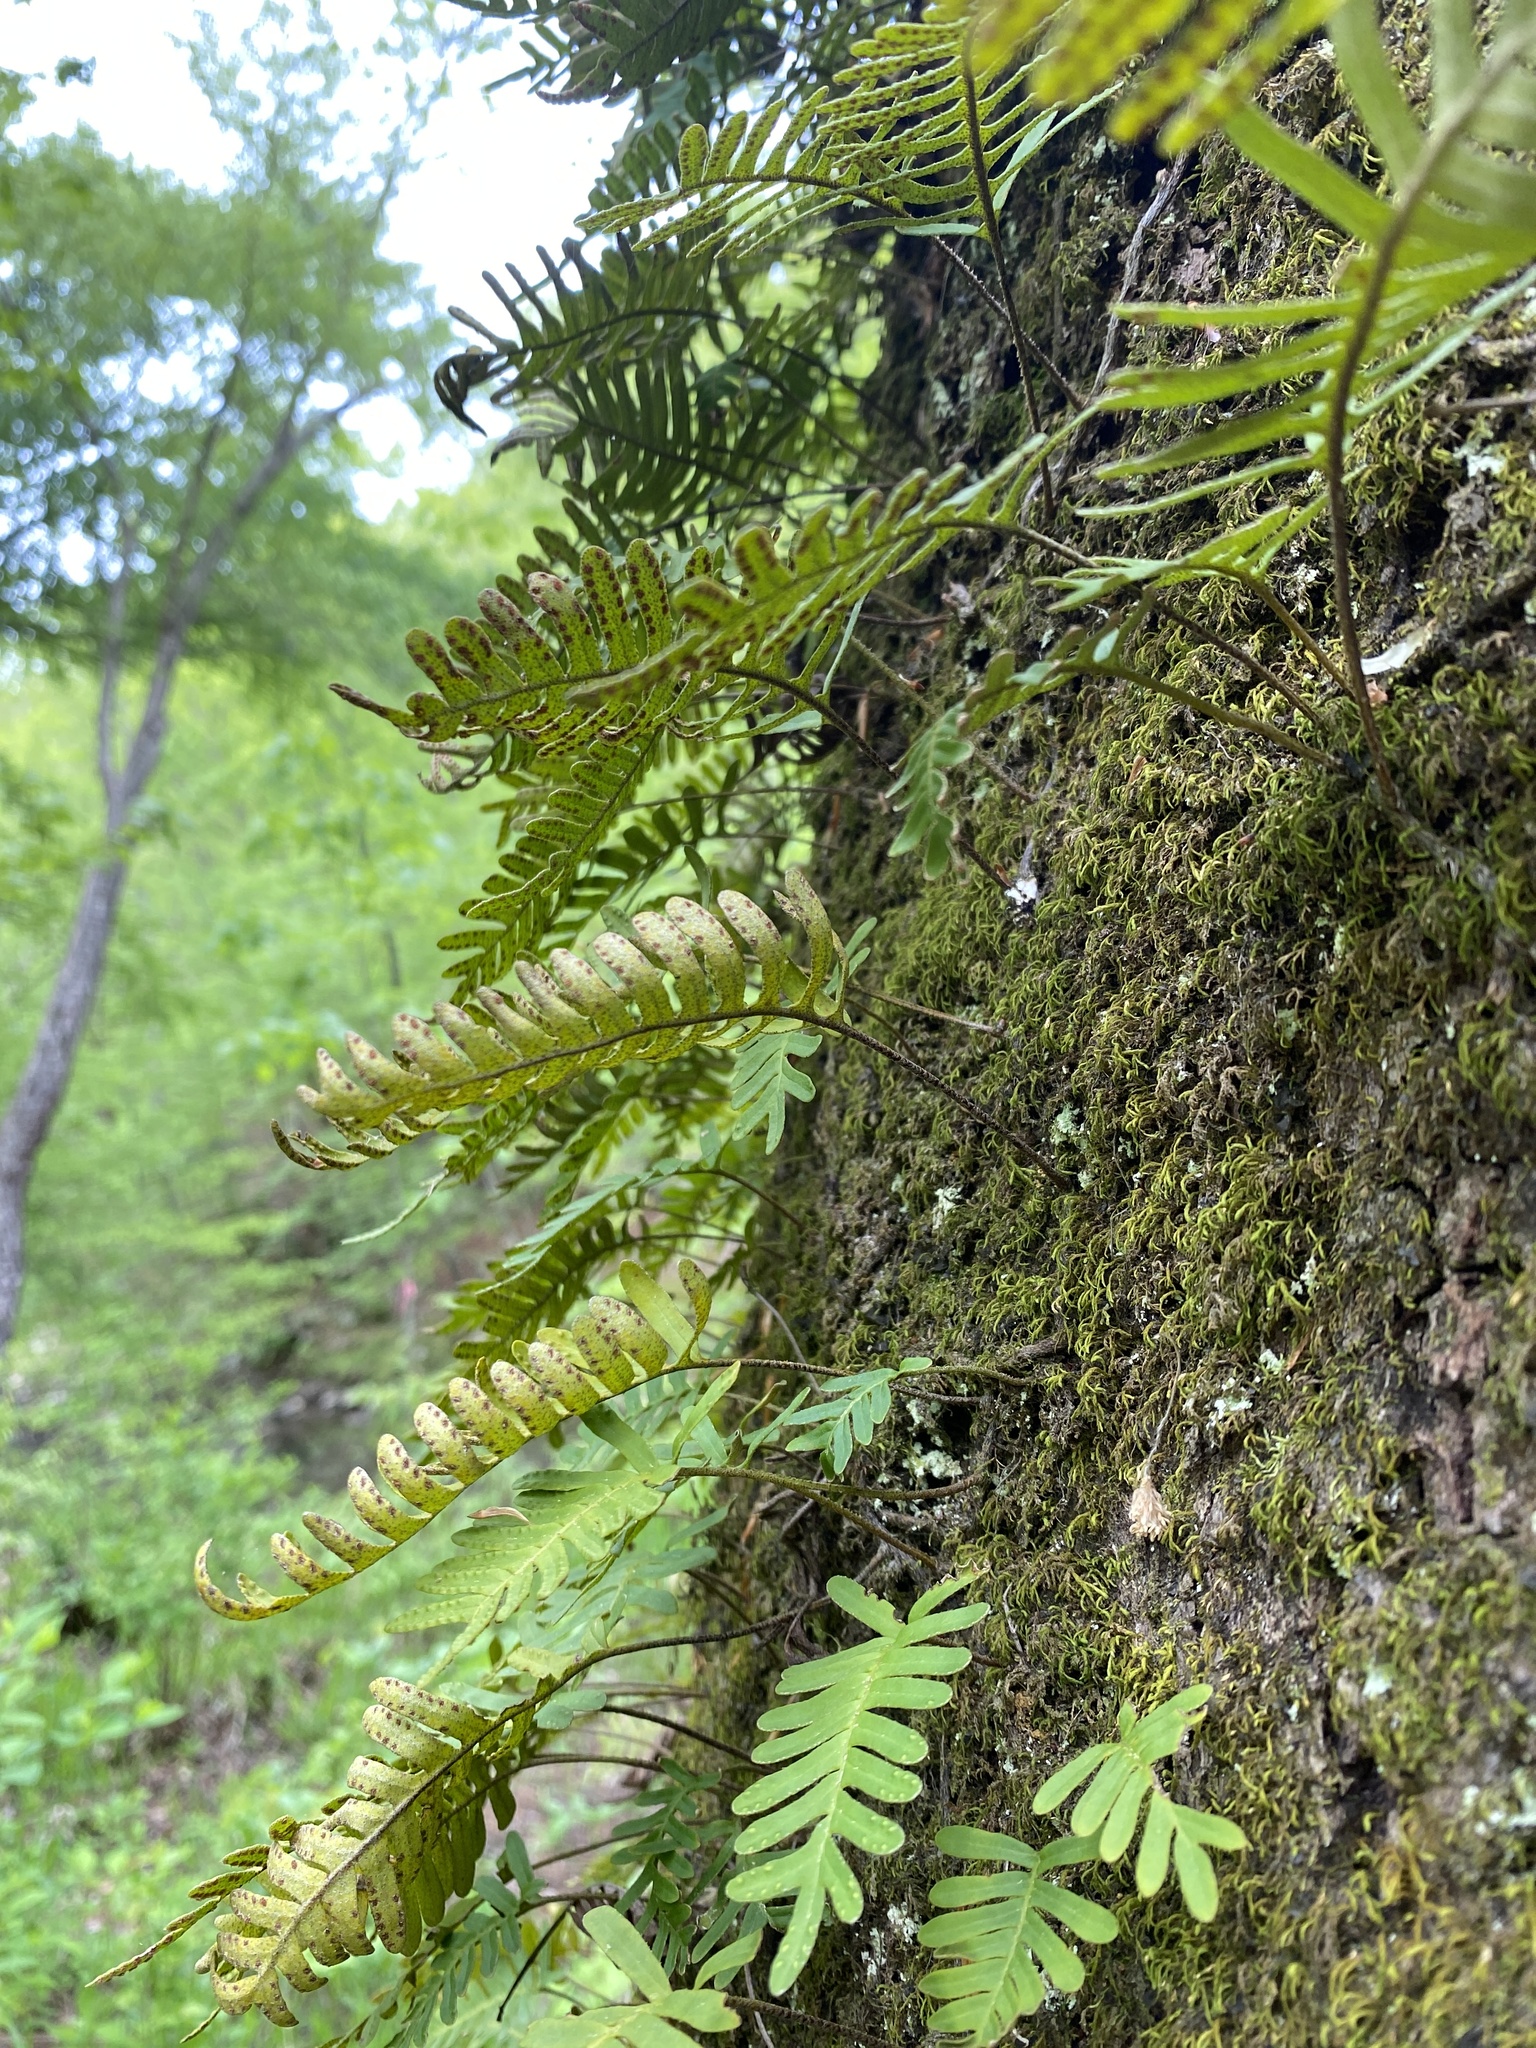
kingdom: Plantae
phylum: Tracheophyta
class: Polypodiopsida
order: Polypodiales
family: Polypodiaceae
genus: Pleopeltis
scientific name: Pleopeltis michauxiana
